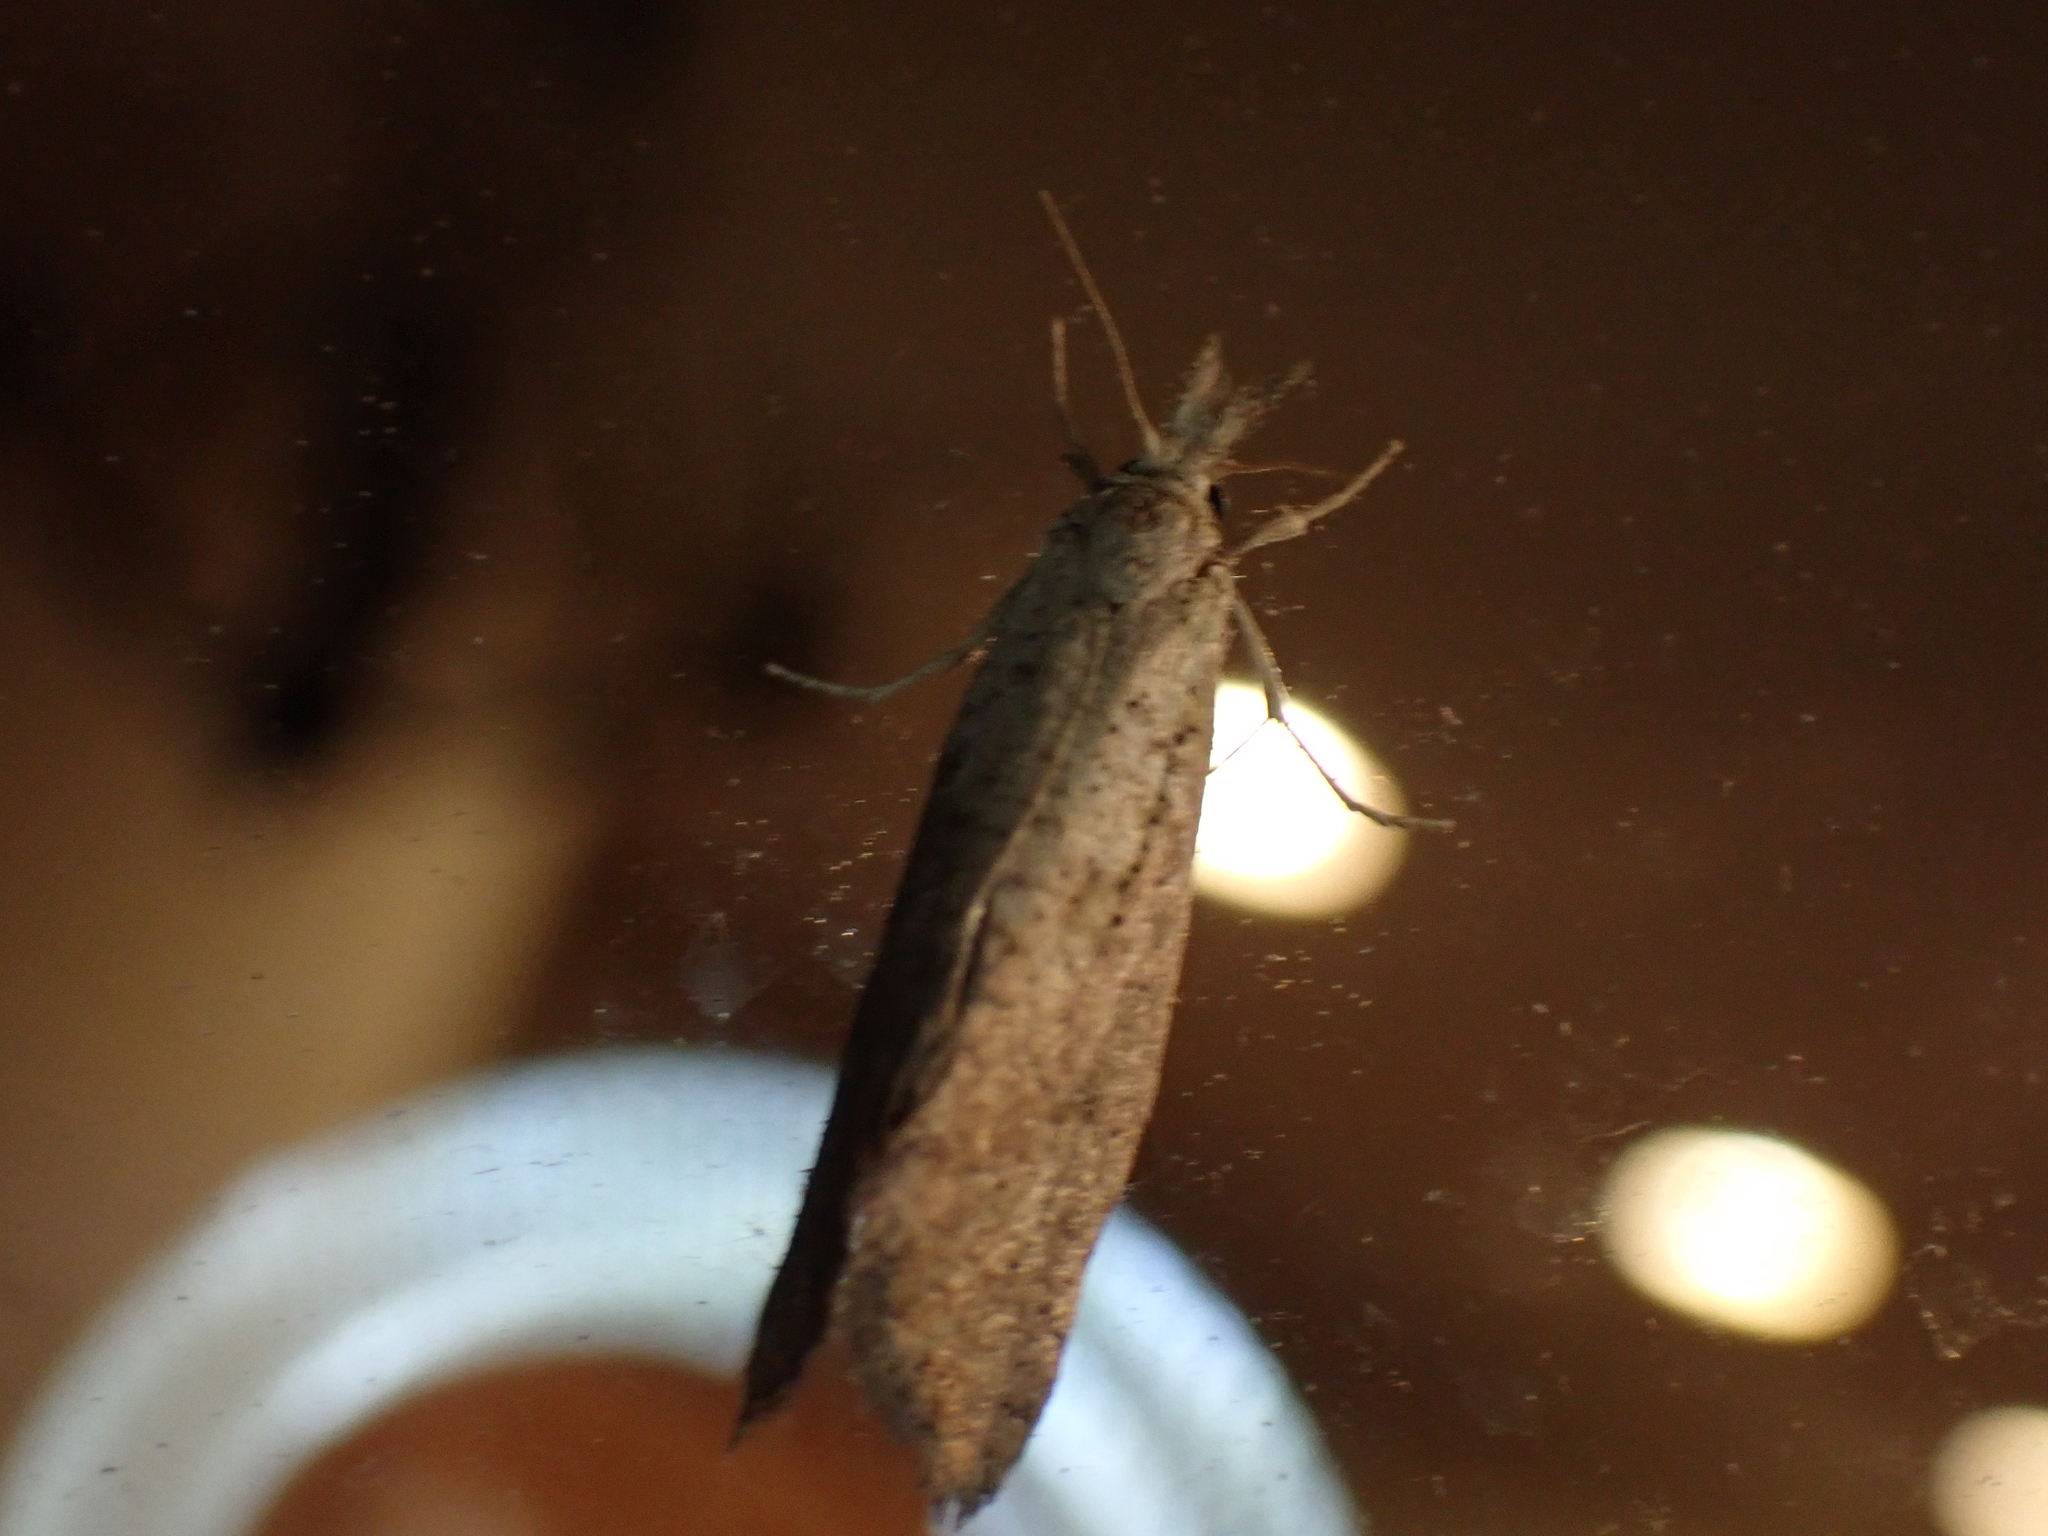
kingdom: Animalia
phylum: Arthropoda
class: Insecta
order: Lepidoptera
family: Tineidae
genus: Acrolophus
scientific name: Acrolophus mortipennella
